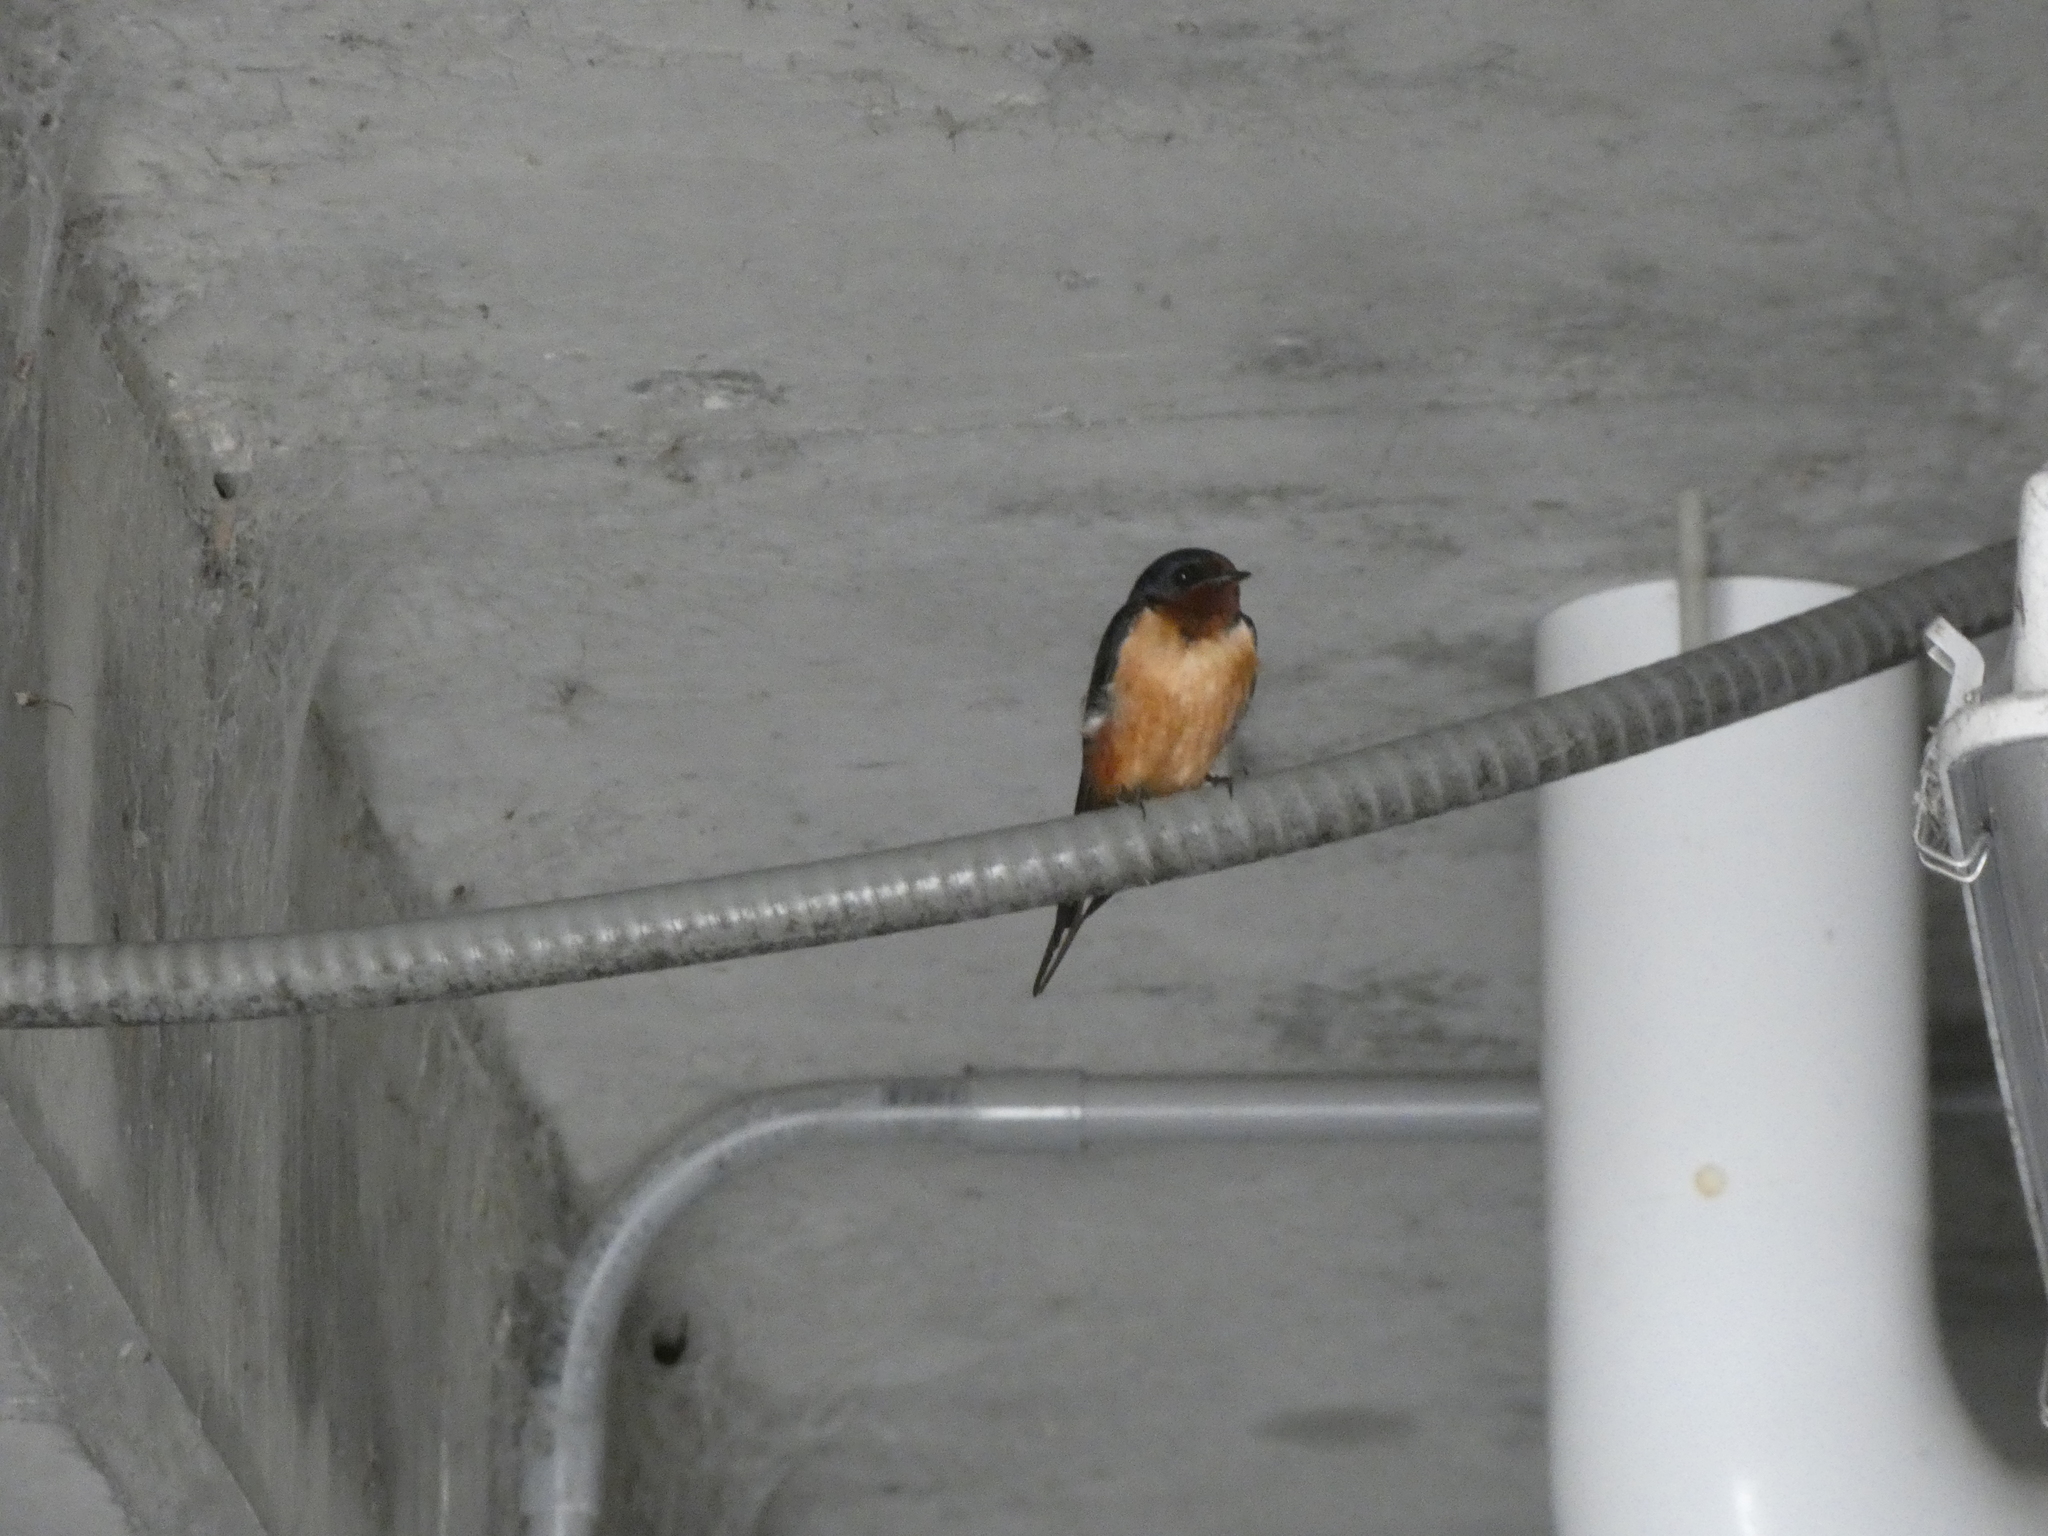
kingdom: Animalia
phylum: Chordata
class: Aves
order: Passeriformes
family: Hirundinidae
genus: Hirundo
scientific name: Hirundo rustica
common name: Barn swallow
